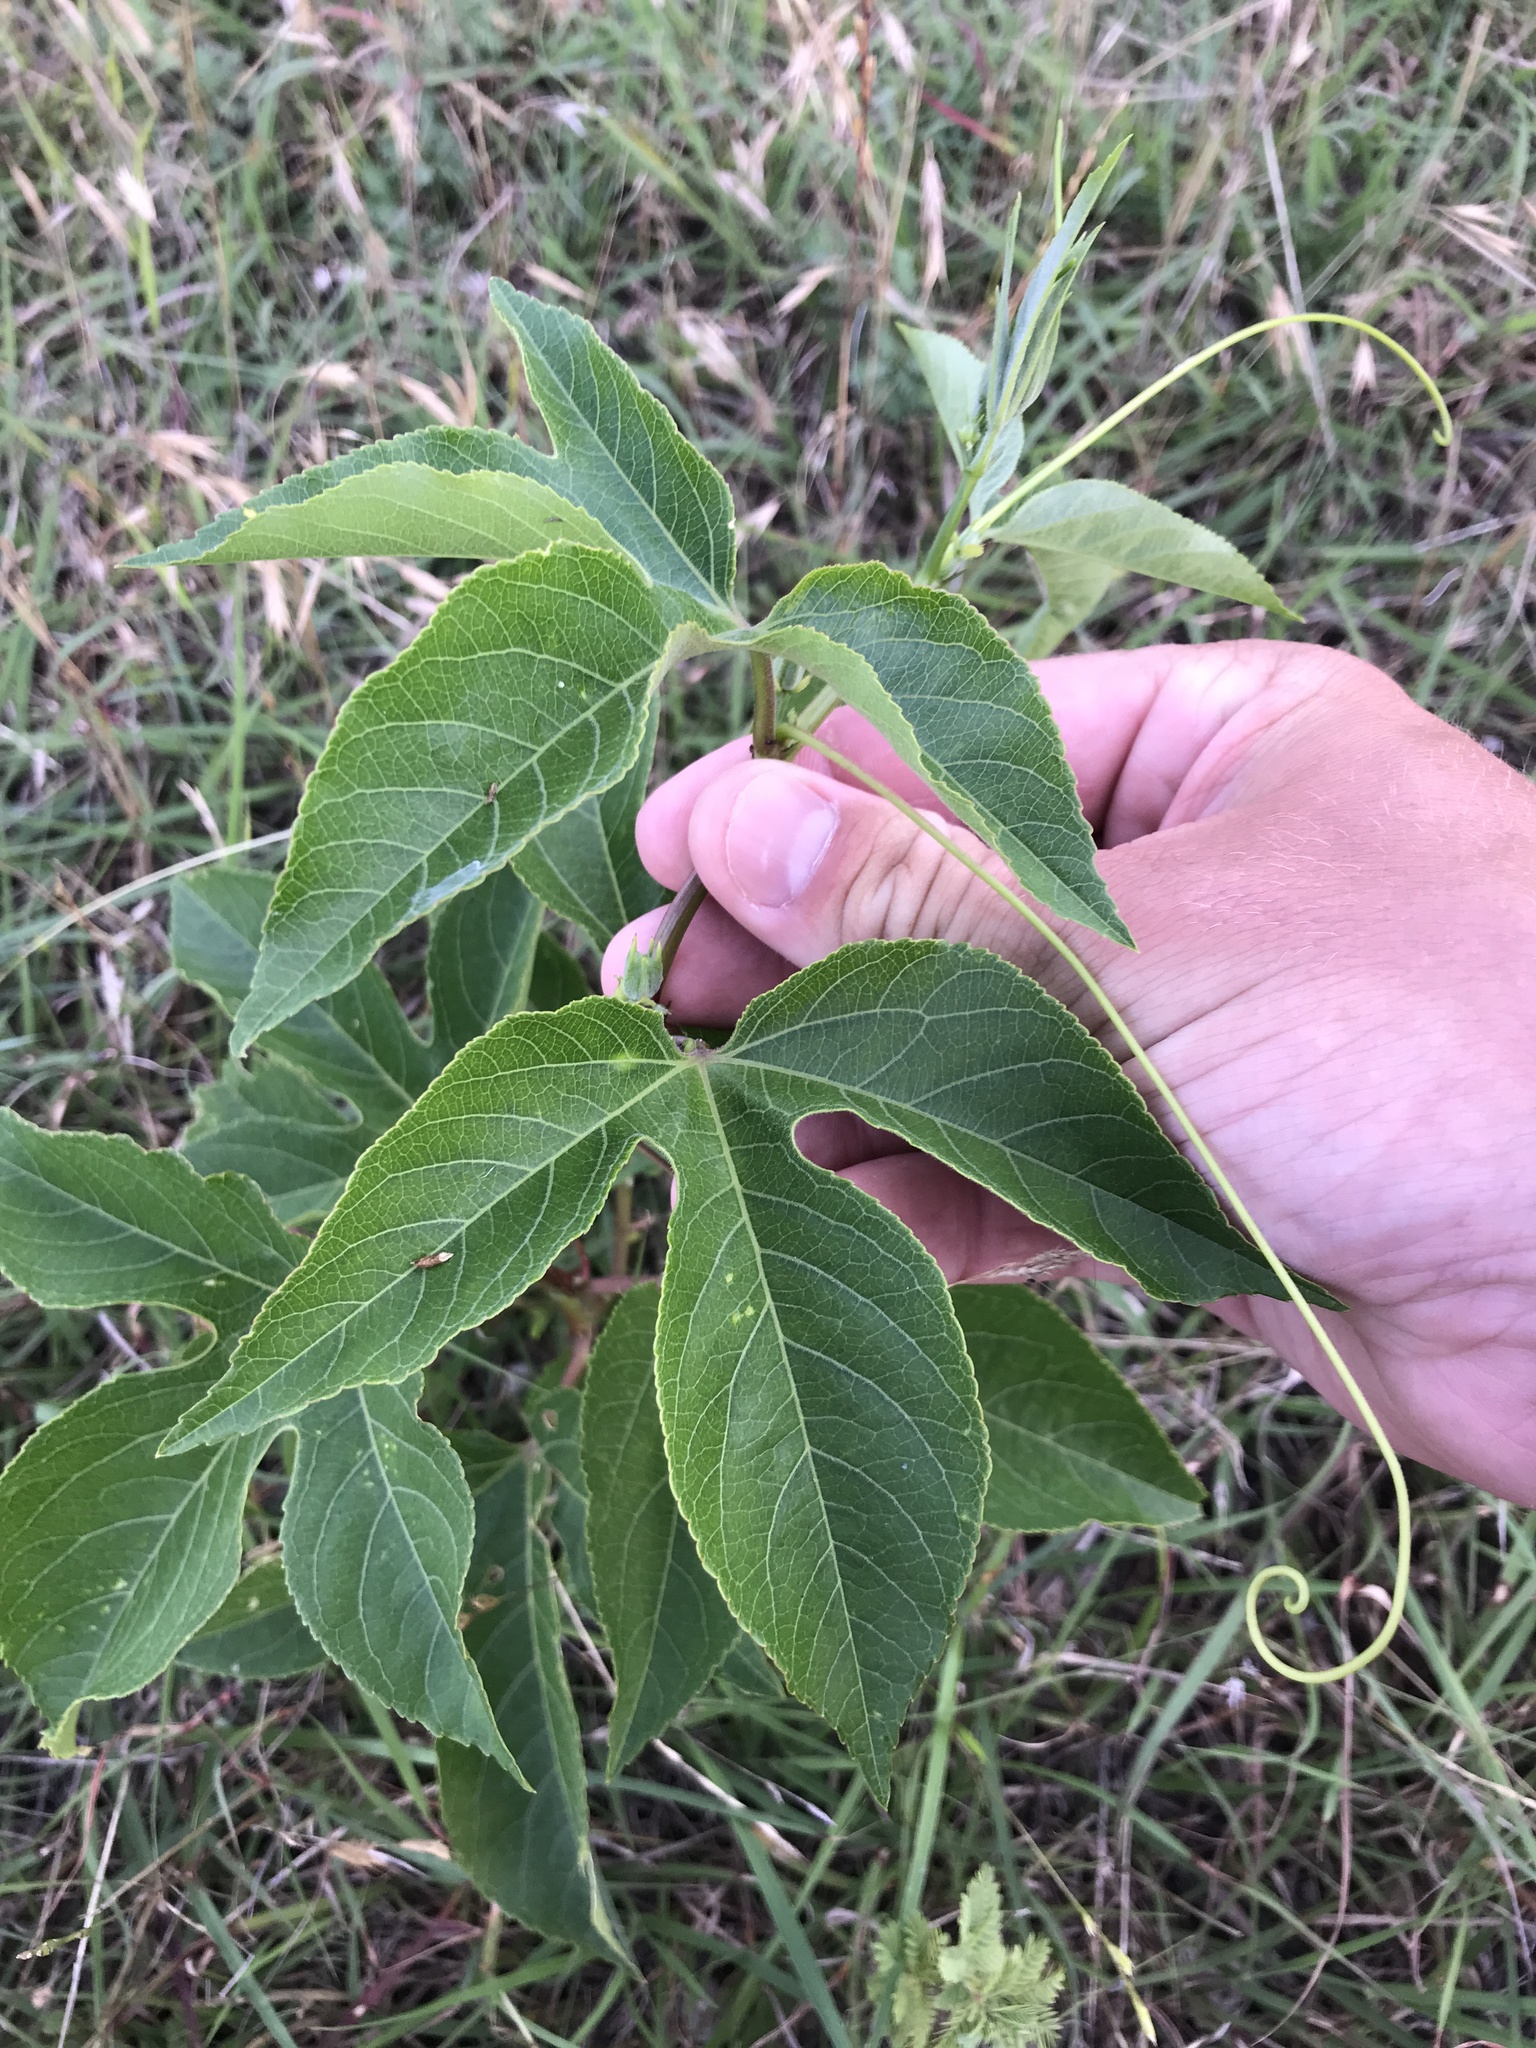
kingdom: Plantae
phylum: Tracheophyta
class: Magnoliopsida
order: Malpighiales
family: Passifloraceae
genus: Passiflora
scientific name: Passiflora incarnata
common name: Apricot-vine
